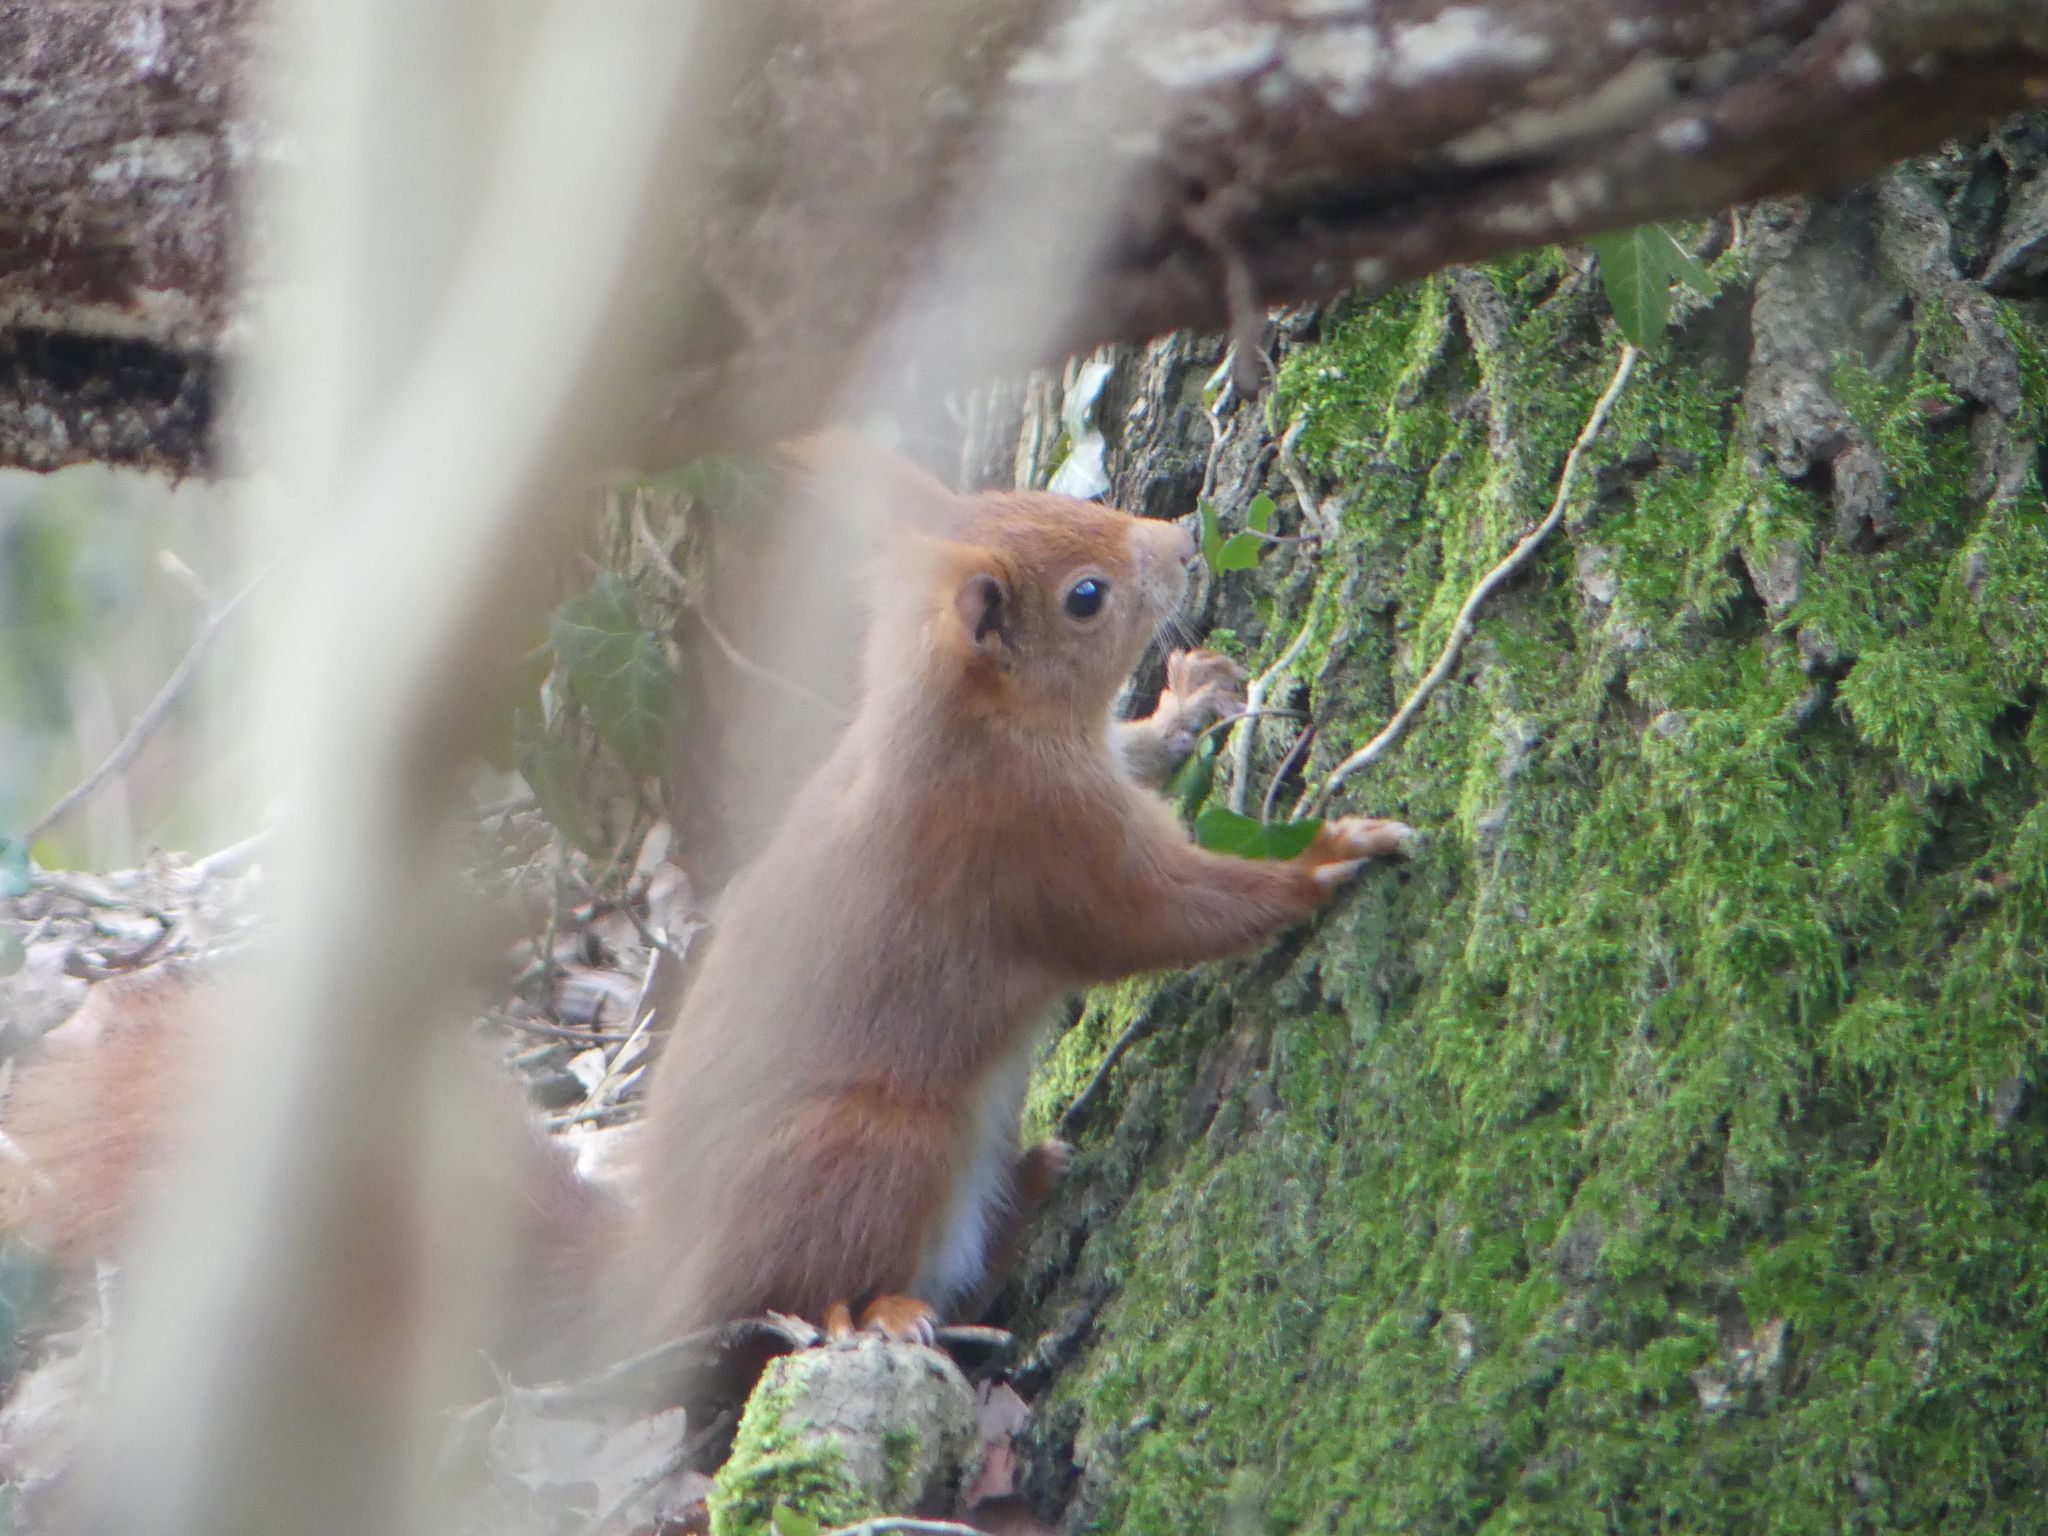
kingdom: Animalia
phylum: Chordata
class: Mammalia
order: Rodentia
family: Sciuridae
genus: Sciurus
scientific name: Sciurus vulgaris
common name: Eurasian red squirrel
